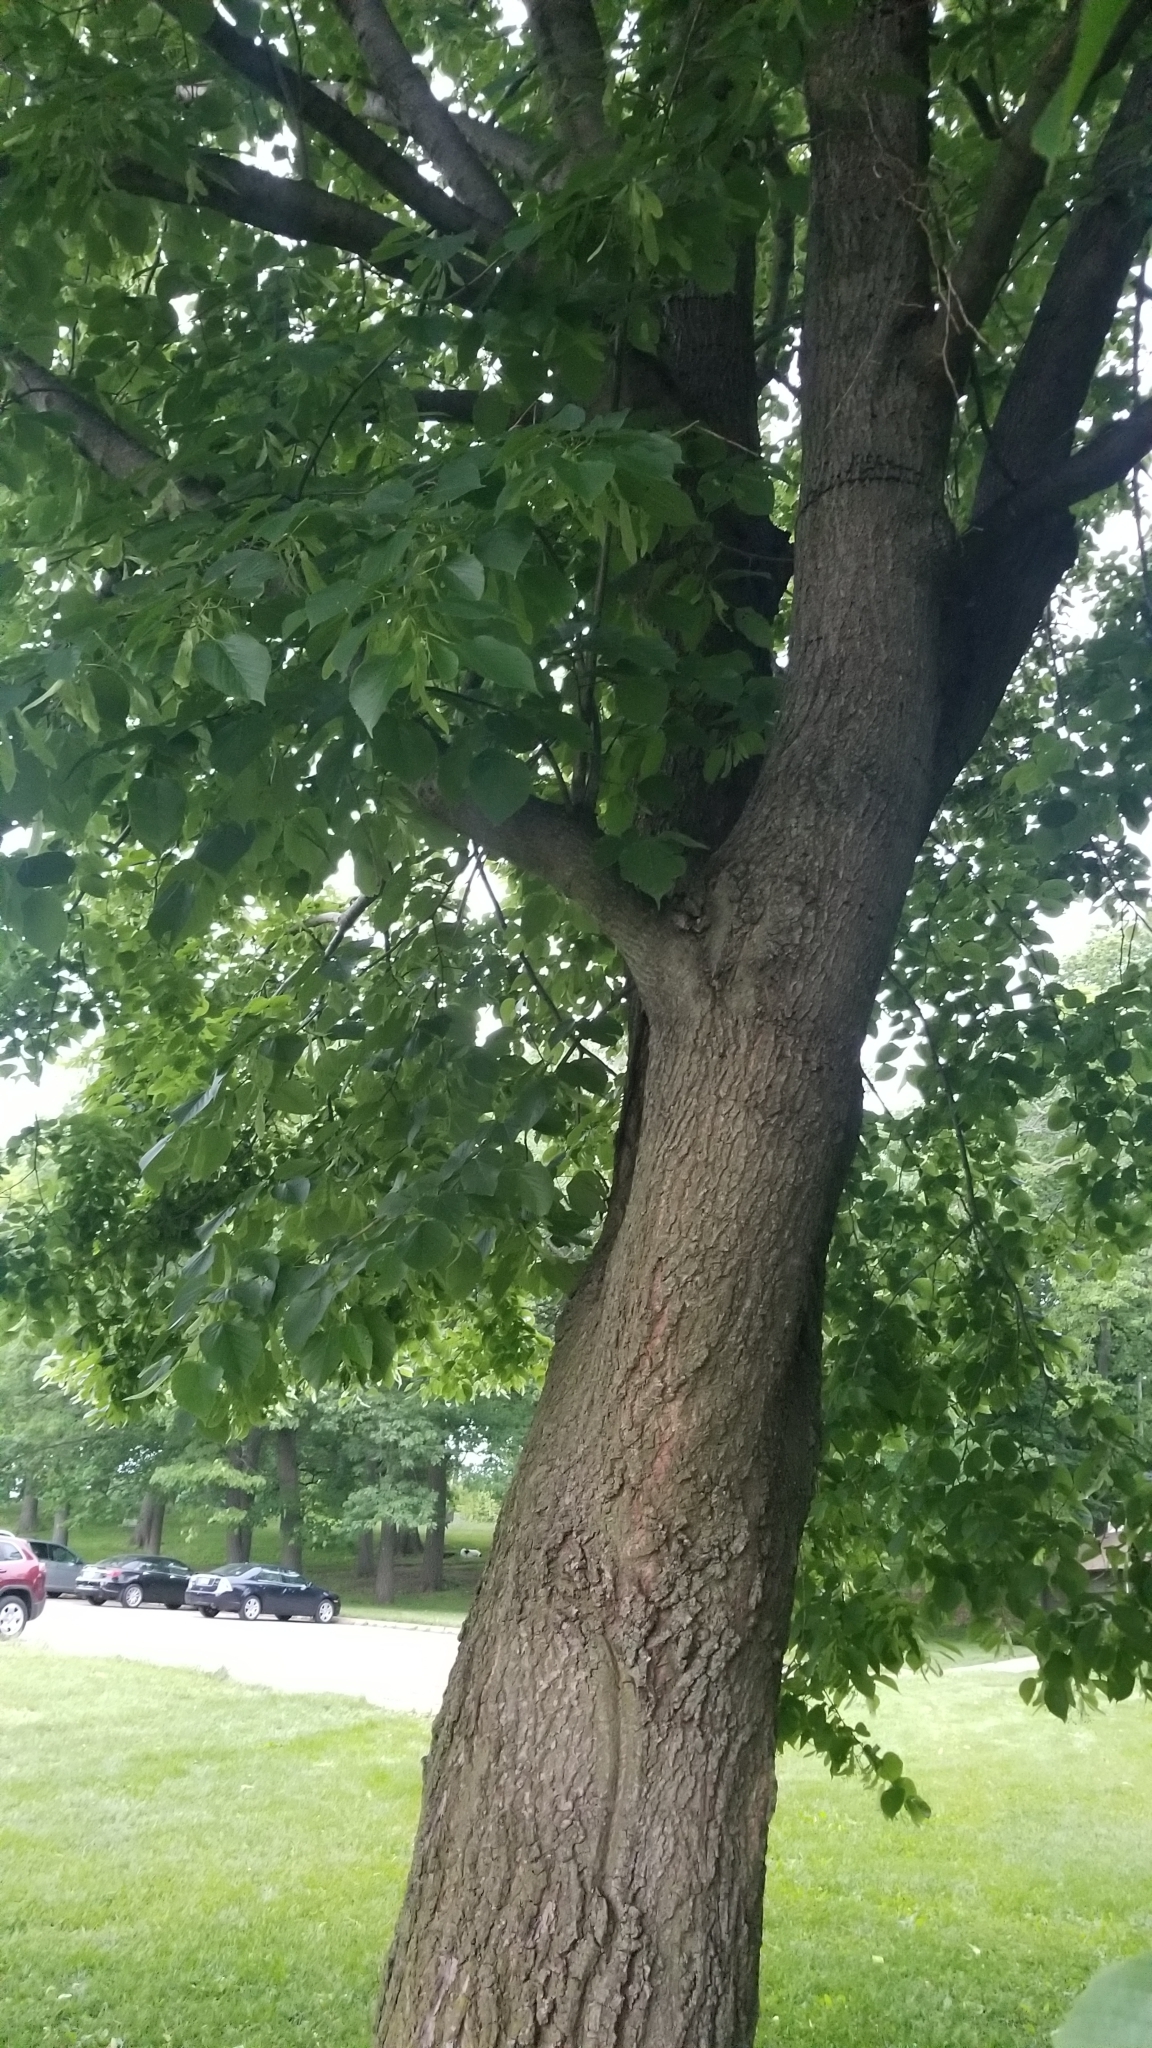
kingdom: Animalia
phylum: Arthropoda
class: Arachnida
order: Trombidiformes
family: Eriophyidae
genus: Eriophyes
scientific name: Eriophyes tiliae
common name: Red nail gall mite
